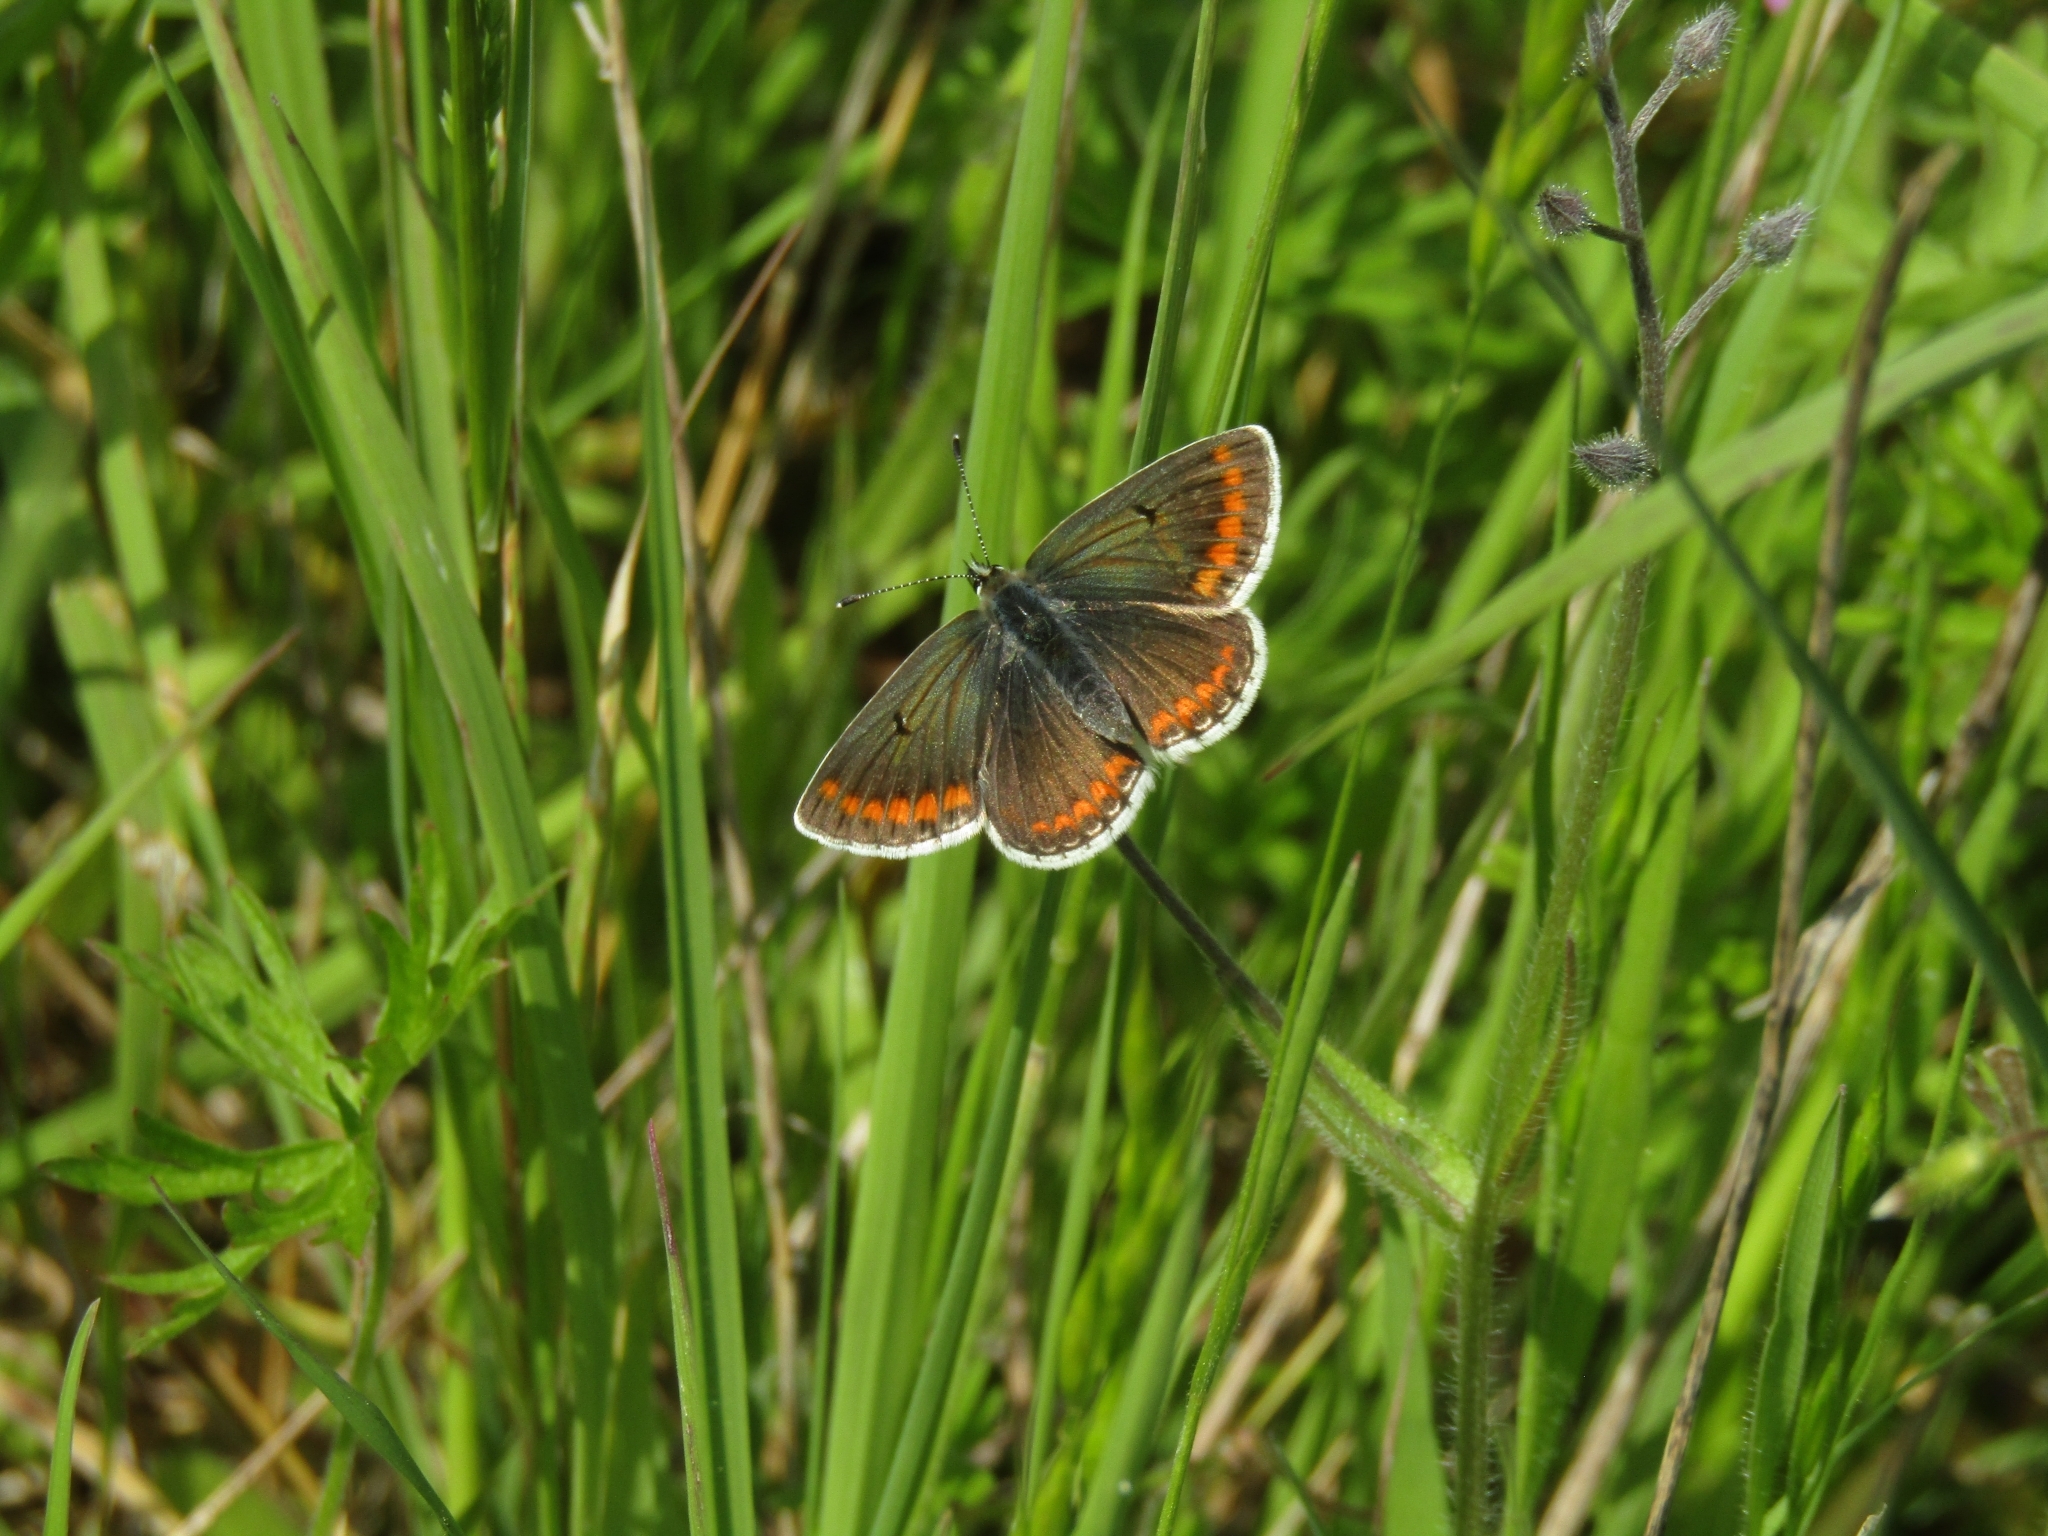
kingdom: Animalia
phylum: Arthropoda
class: Insecta
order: Lepidoptera
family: Lycaenidae
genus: Aricia
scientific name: Aricia agestis
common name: Brown argus
